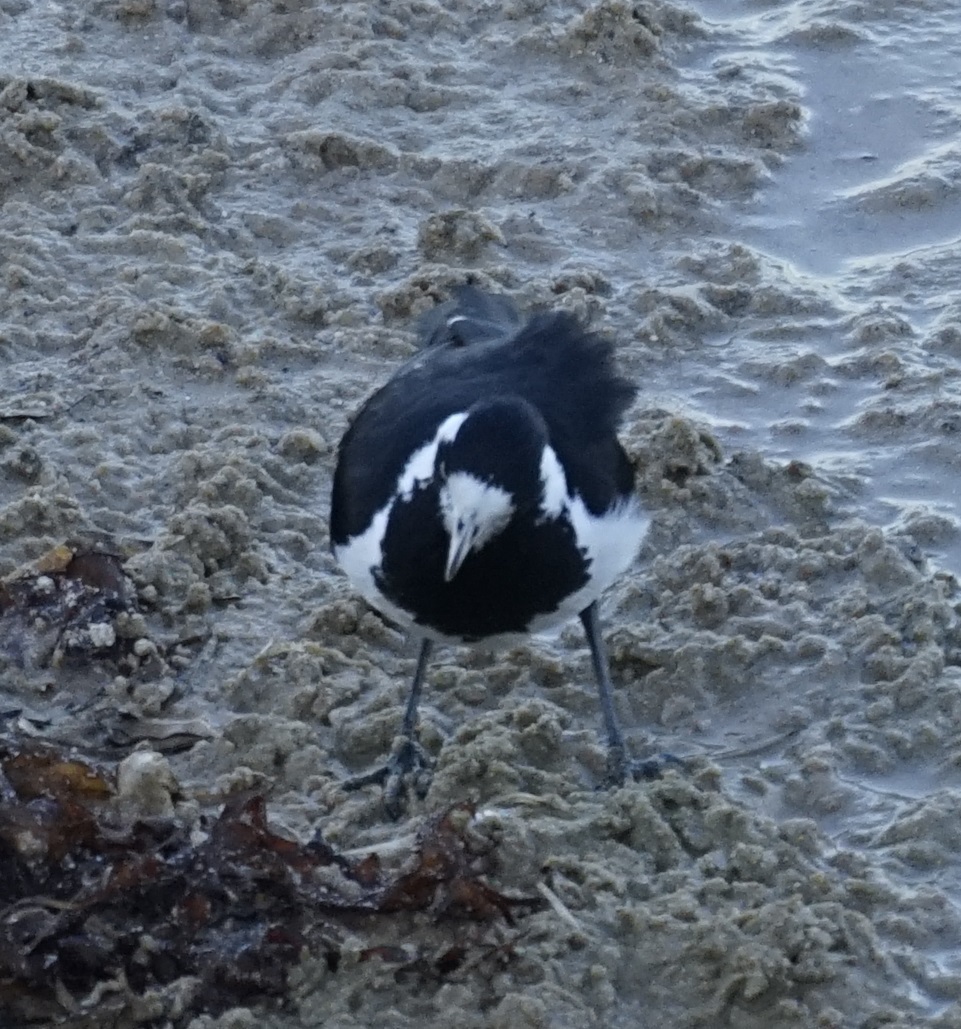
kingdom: Animalia
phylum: Chordata
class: Aves
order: Passeriformes
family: Monarchidae
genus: Grallina
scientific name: Grallina cyanoleuca
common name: Magpie-lark
